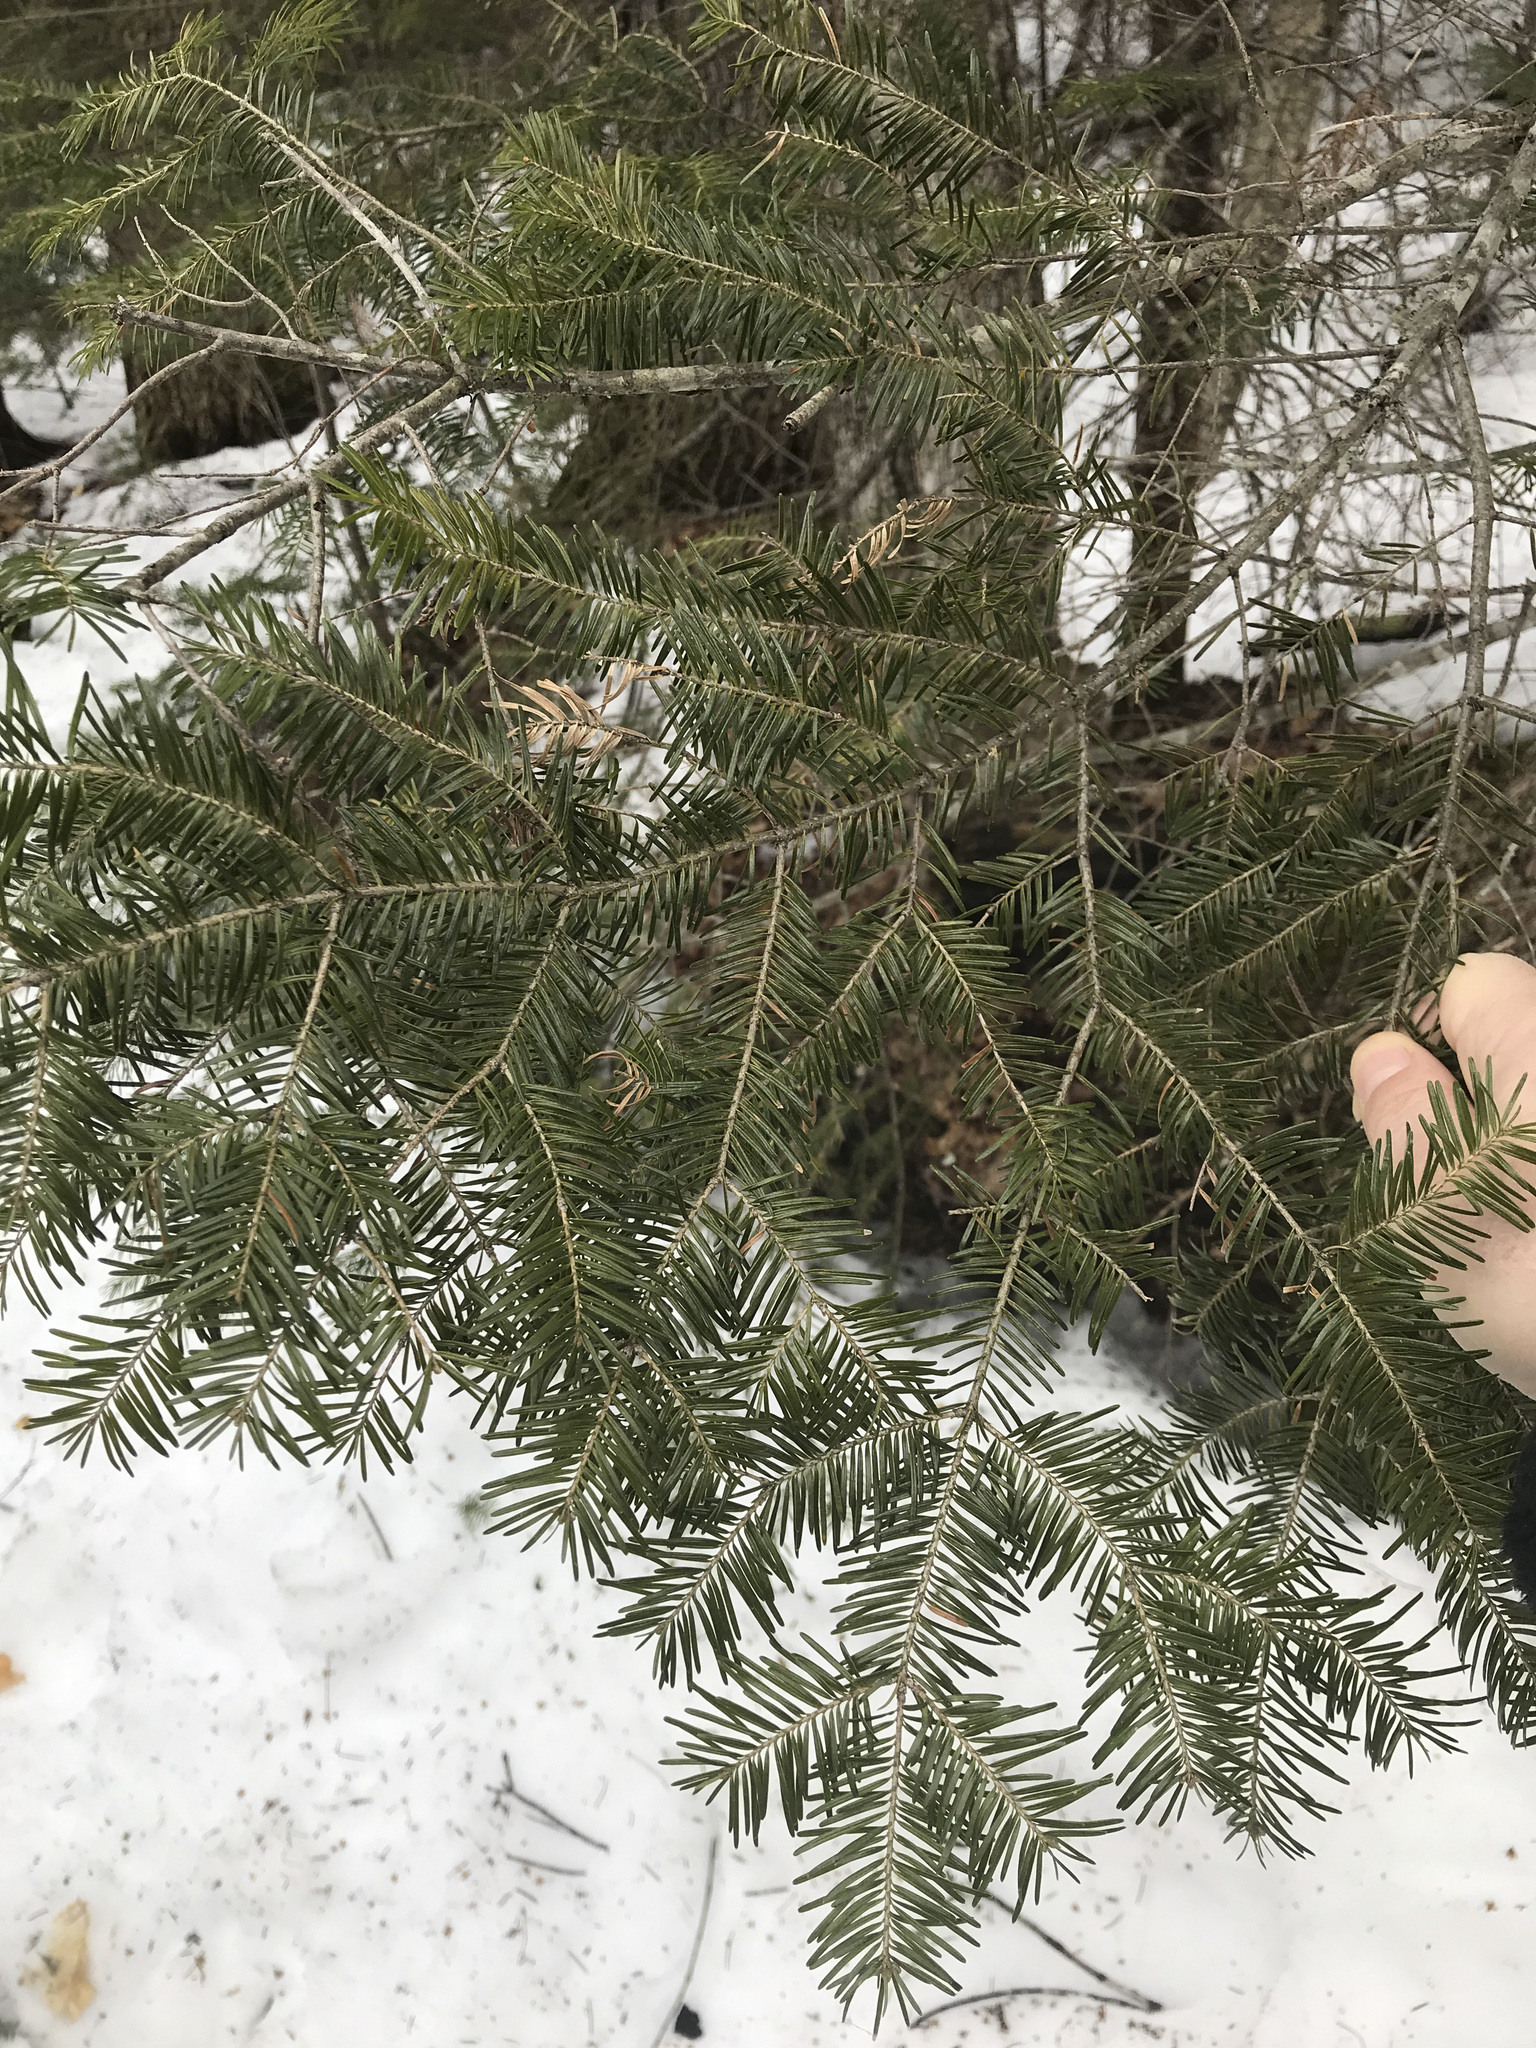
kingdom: Plantae
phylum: Tracheophyta
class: Pinopsida
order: Pinales
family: Pinaceae
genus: Abies
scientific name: Abies balsamea
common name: Balsam fir
